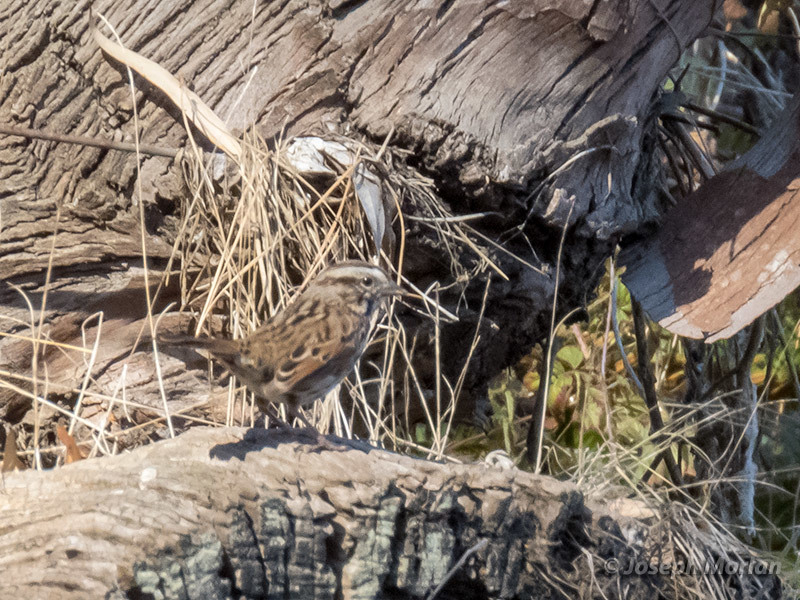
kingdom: Animalia
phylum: Chordata
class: Aves
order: Passeriformes
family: Passerellidae
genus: Melospiza
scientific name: Melospiza melodia
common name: Song sparrow
